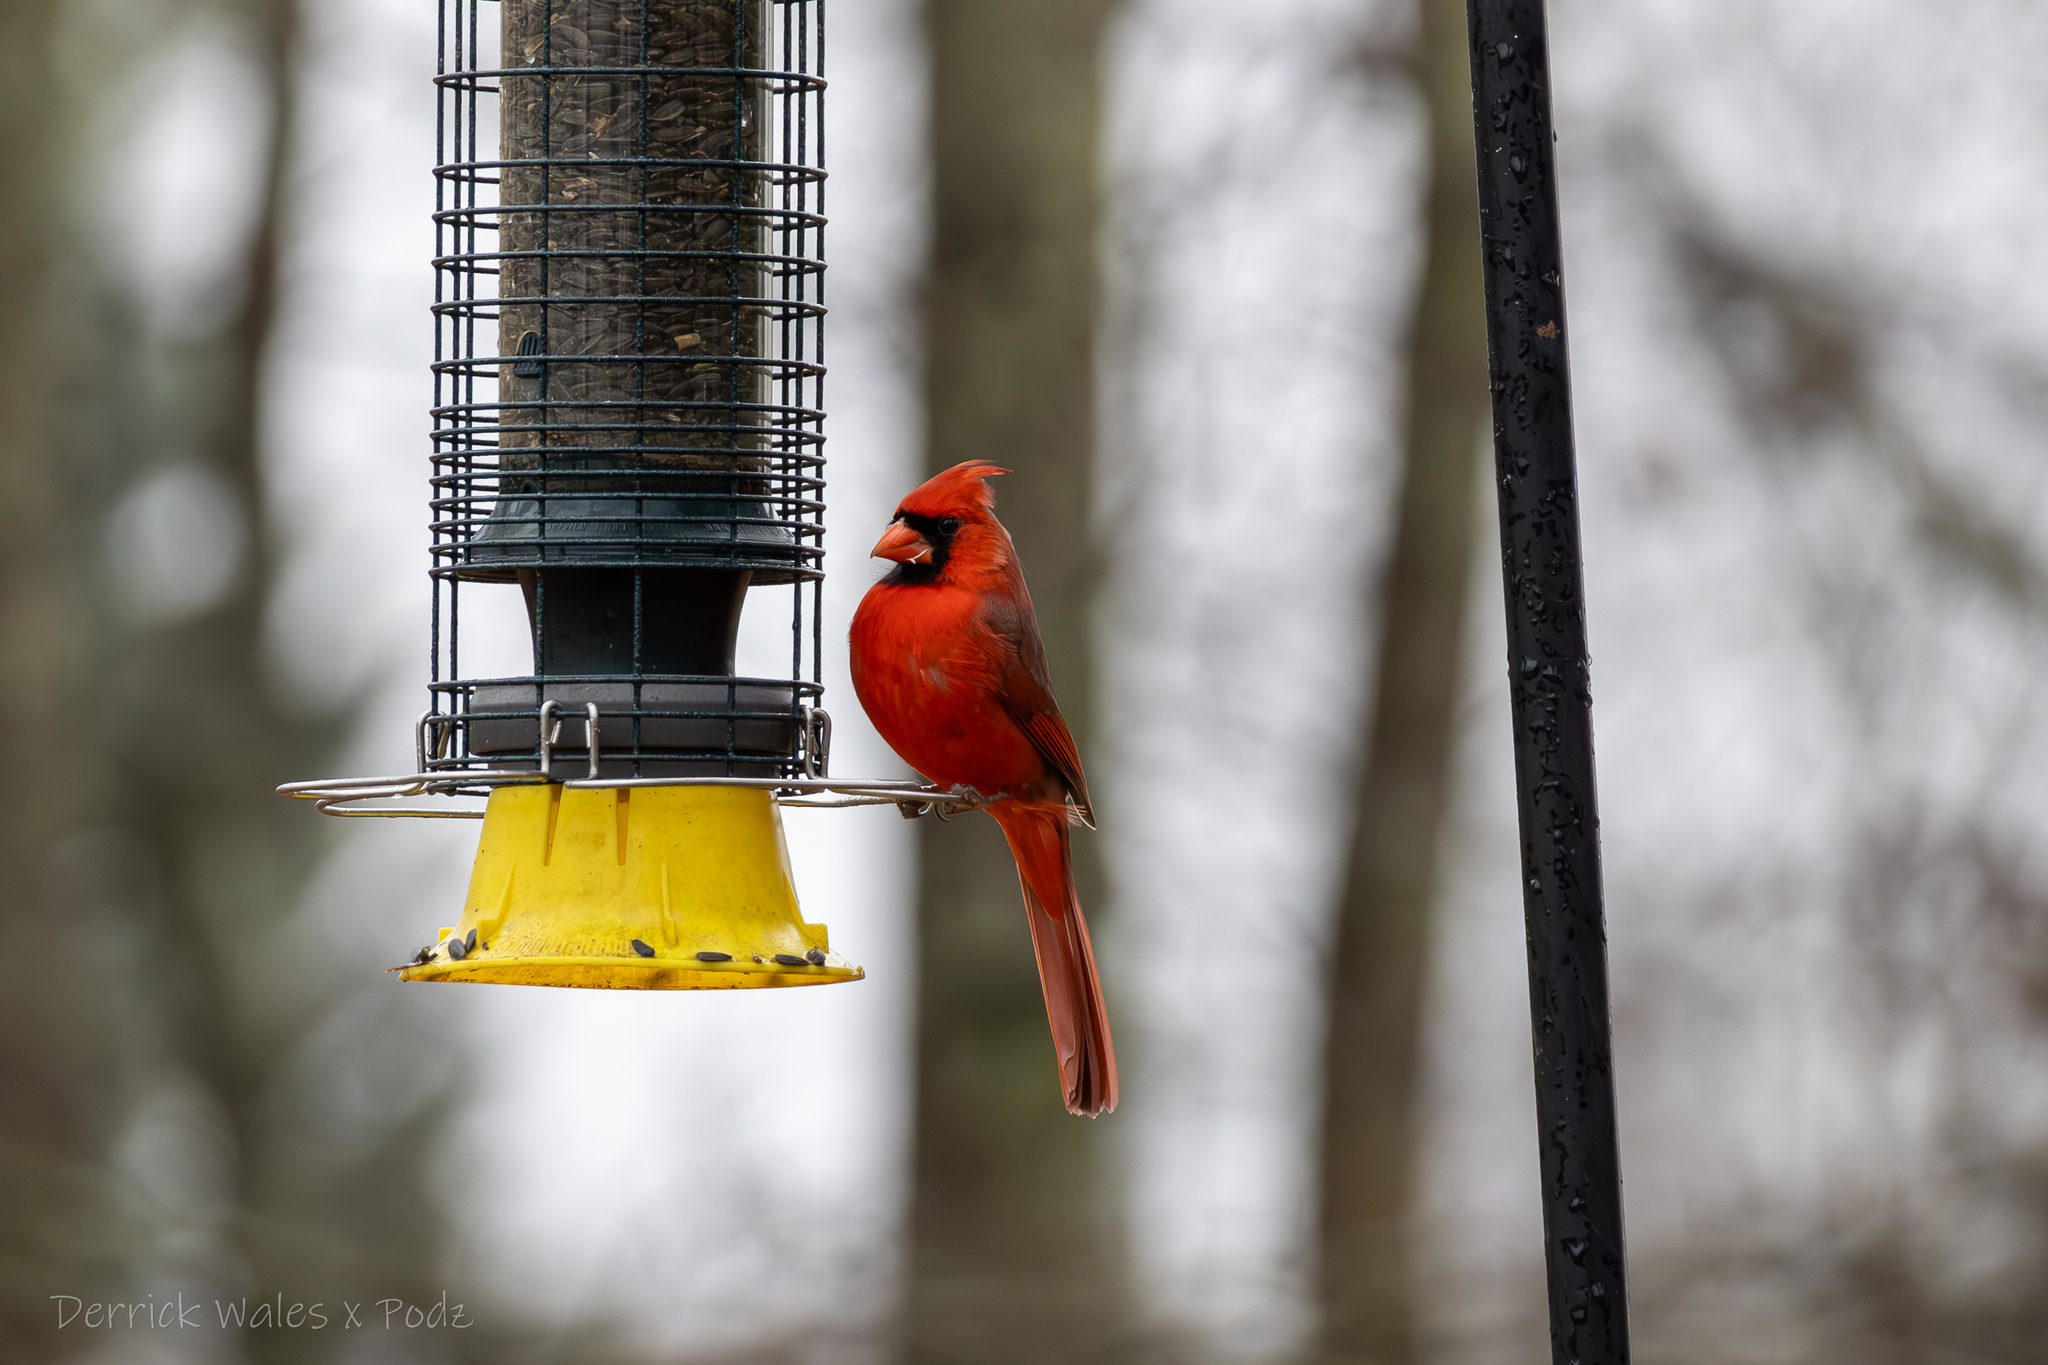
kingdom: Animalia
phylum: Chordata
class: Aves
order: Passeriformes
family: Cardinalidae
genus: Cardinalis
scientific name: Cardinalis cardinalis
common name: Northern cardinal
